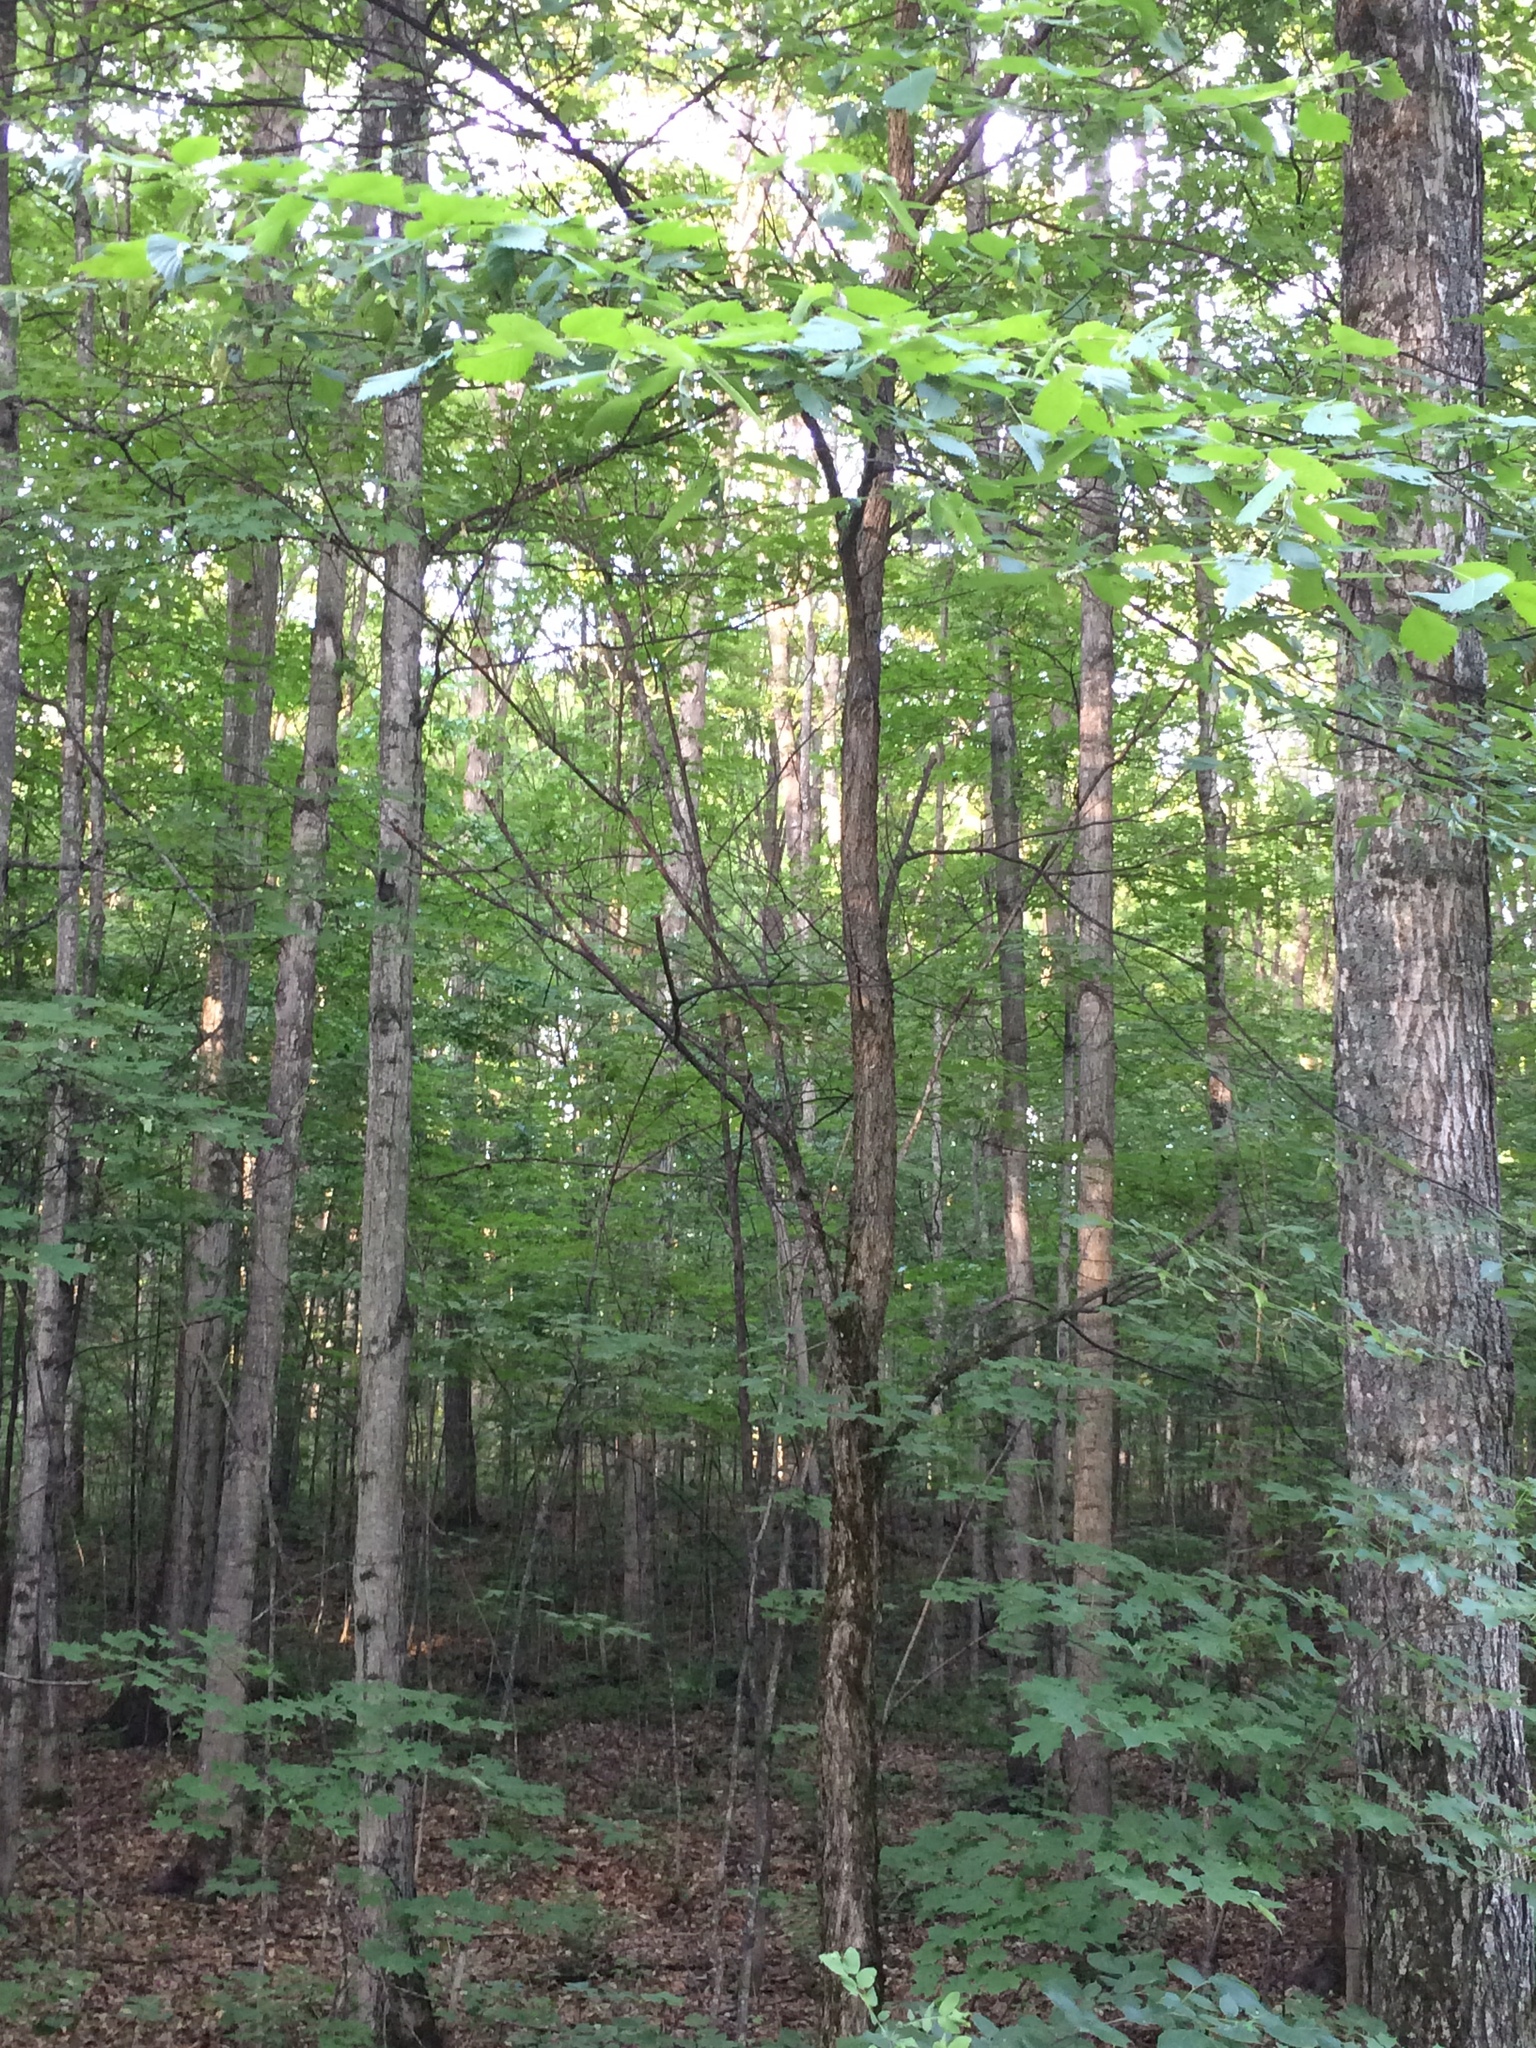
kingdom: Plantae
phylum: Tracheophyta
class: Magnoliopsida
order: Rosales
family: Ulmaceae
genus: Ulmus
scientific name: Ulmus americana
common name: American elm
